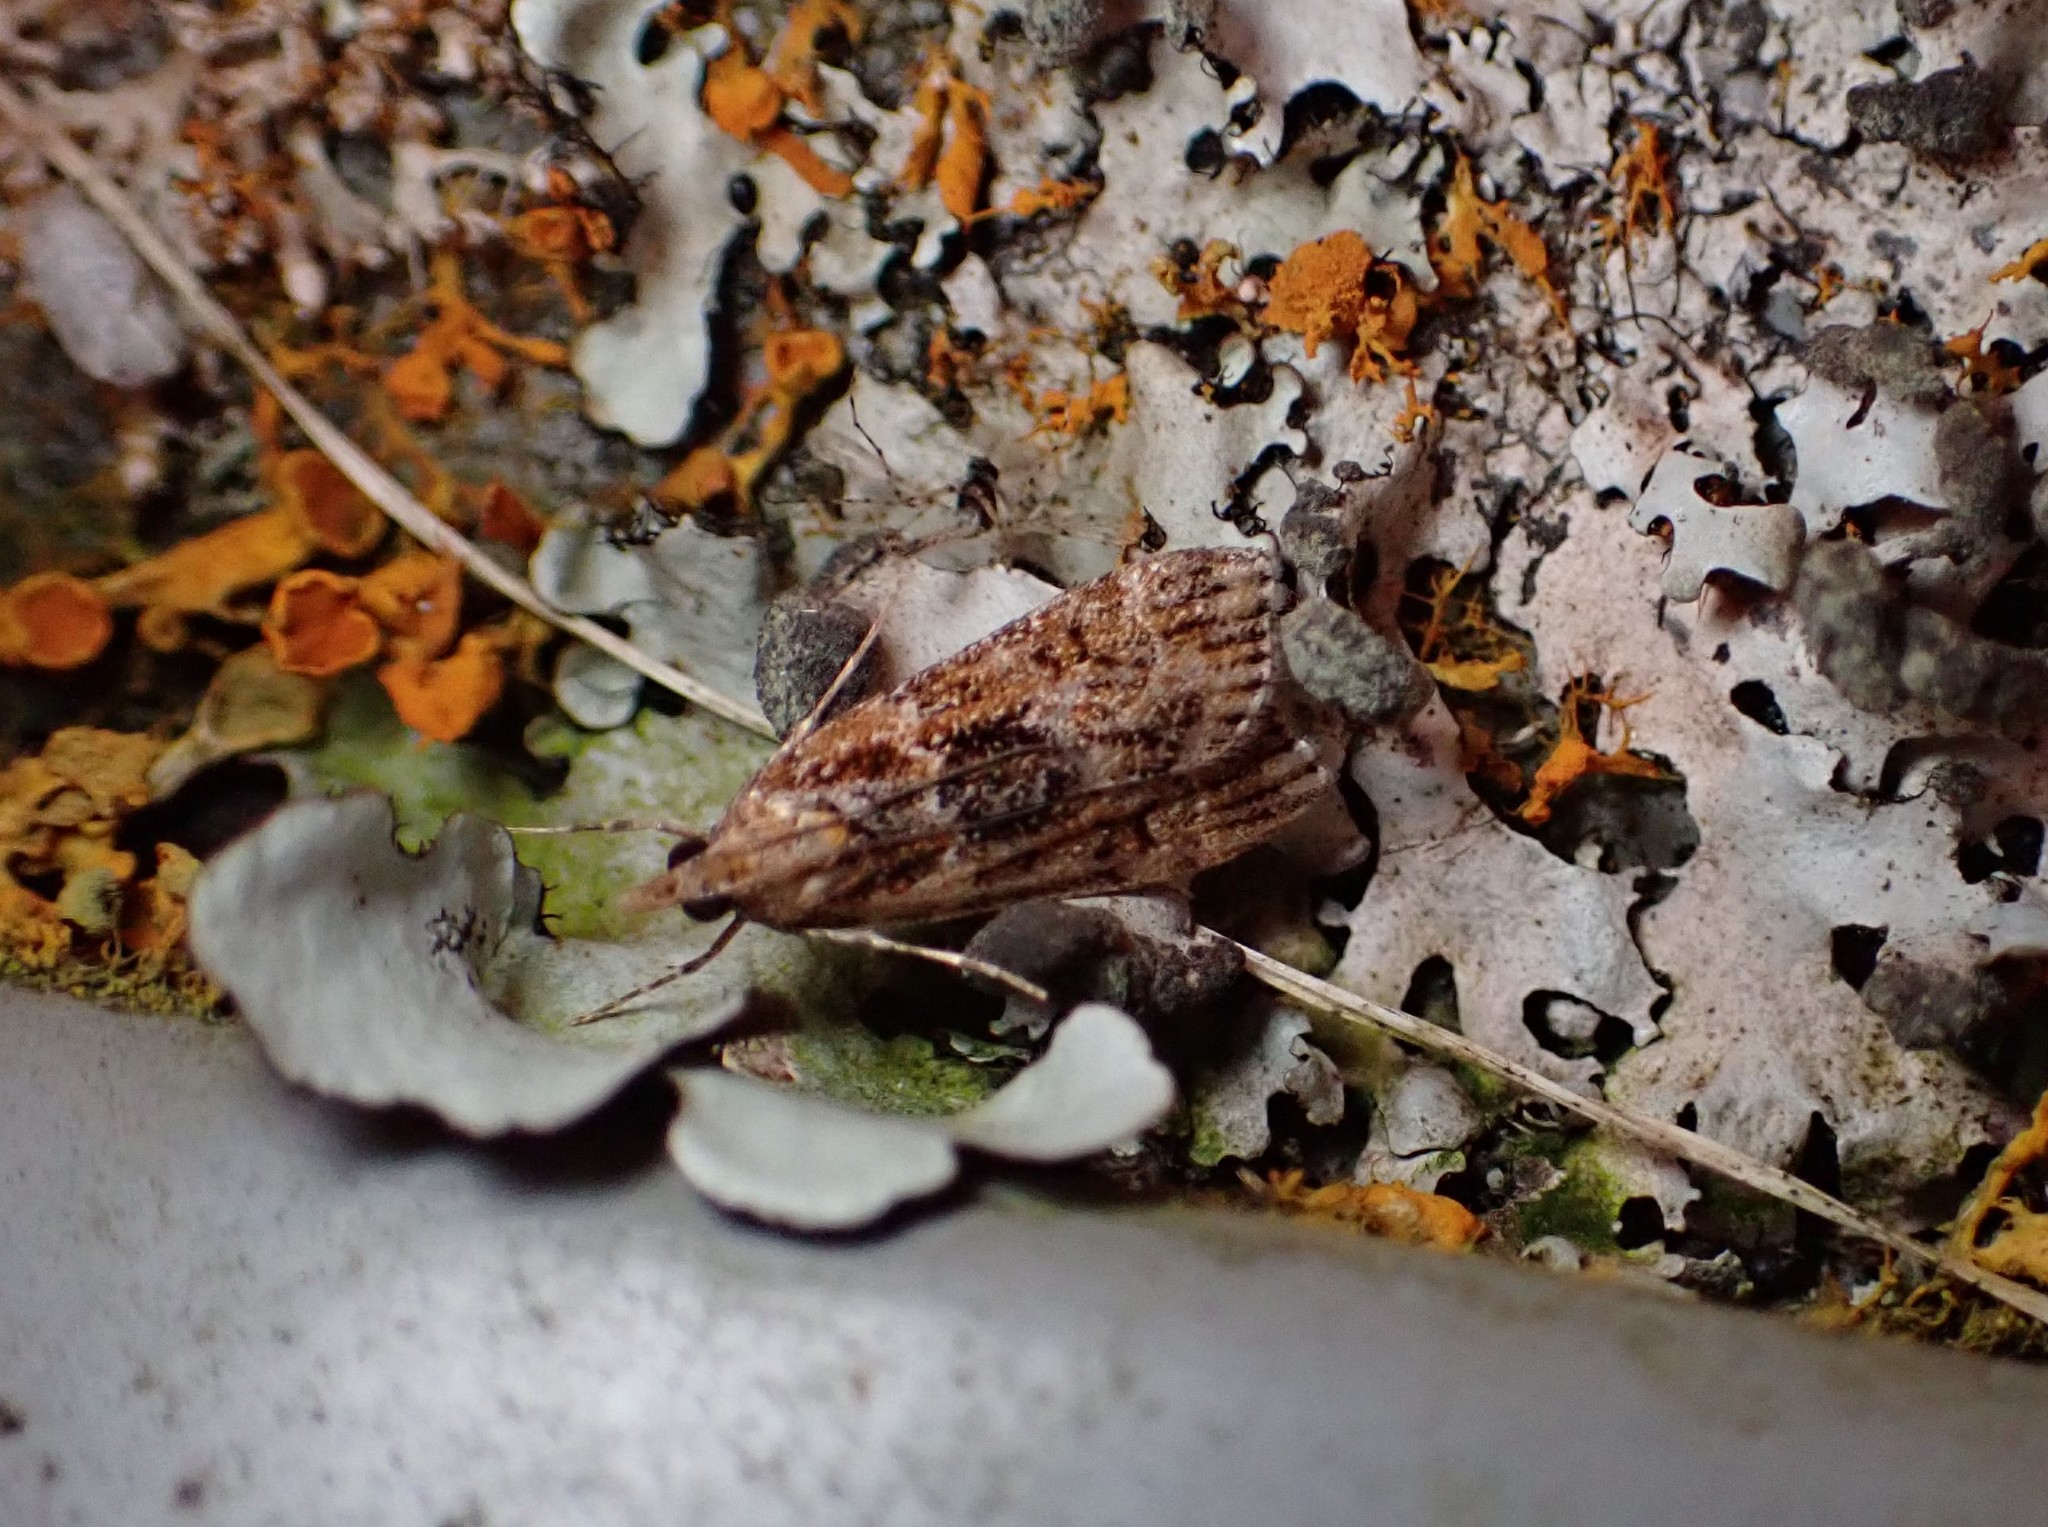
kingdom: Animalia
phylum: Arthropoda
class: Insecta
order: Lepidoptera
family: Crambidae
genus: Scoparia
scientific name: Scoparia animosa
